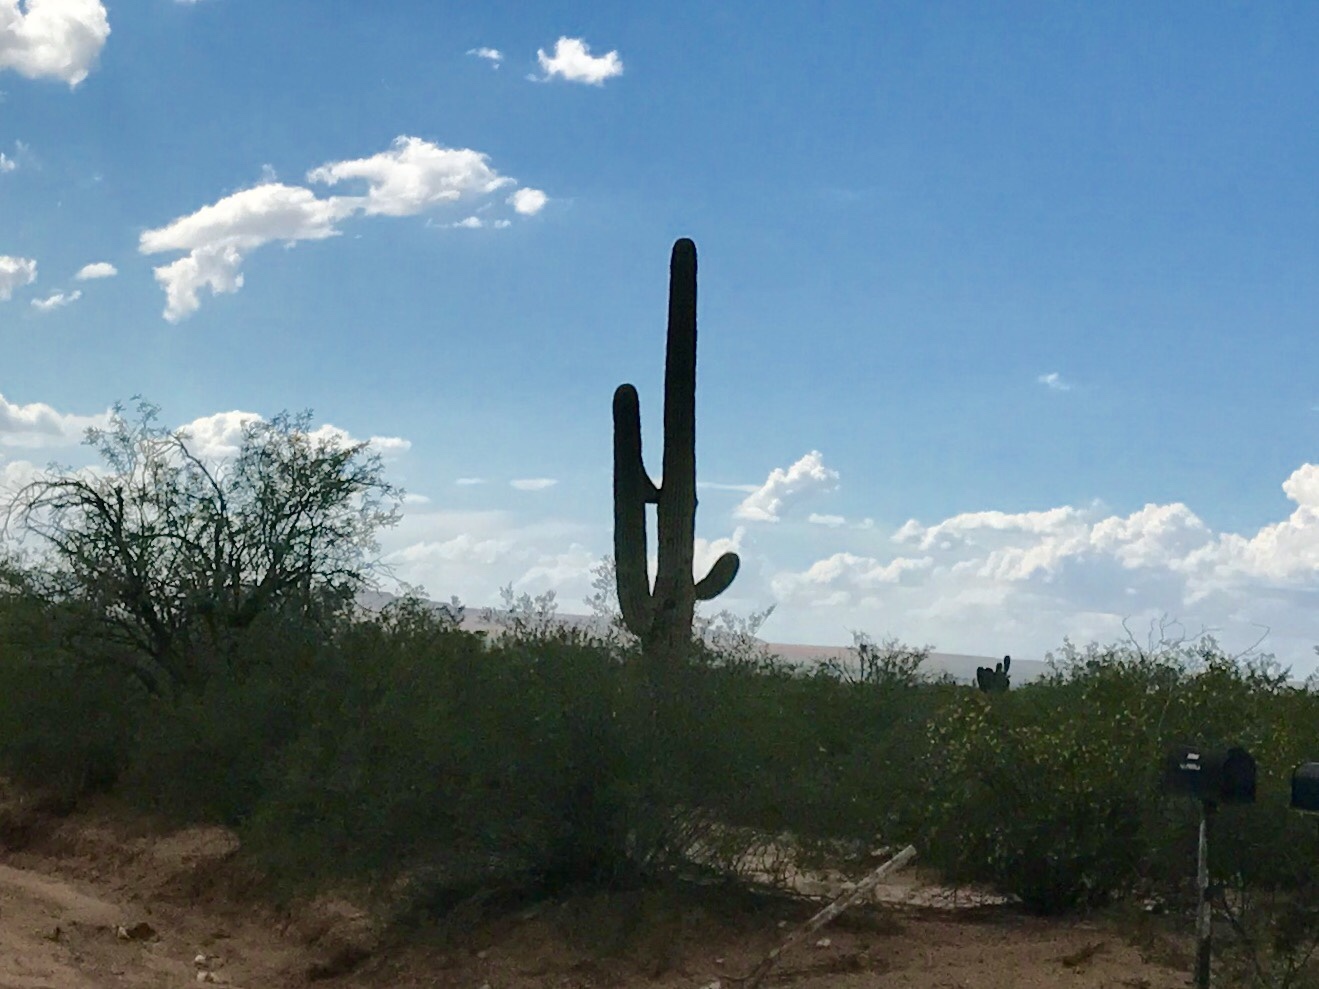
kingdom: Plantae
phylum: Tracheophyta
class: Magnoliopsida
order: Caryophyllales
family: Cactaceae
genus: Carnegiea
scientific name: Carnegiea gigantea
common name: Saguaro
